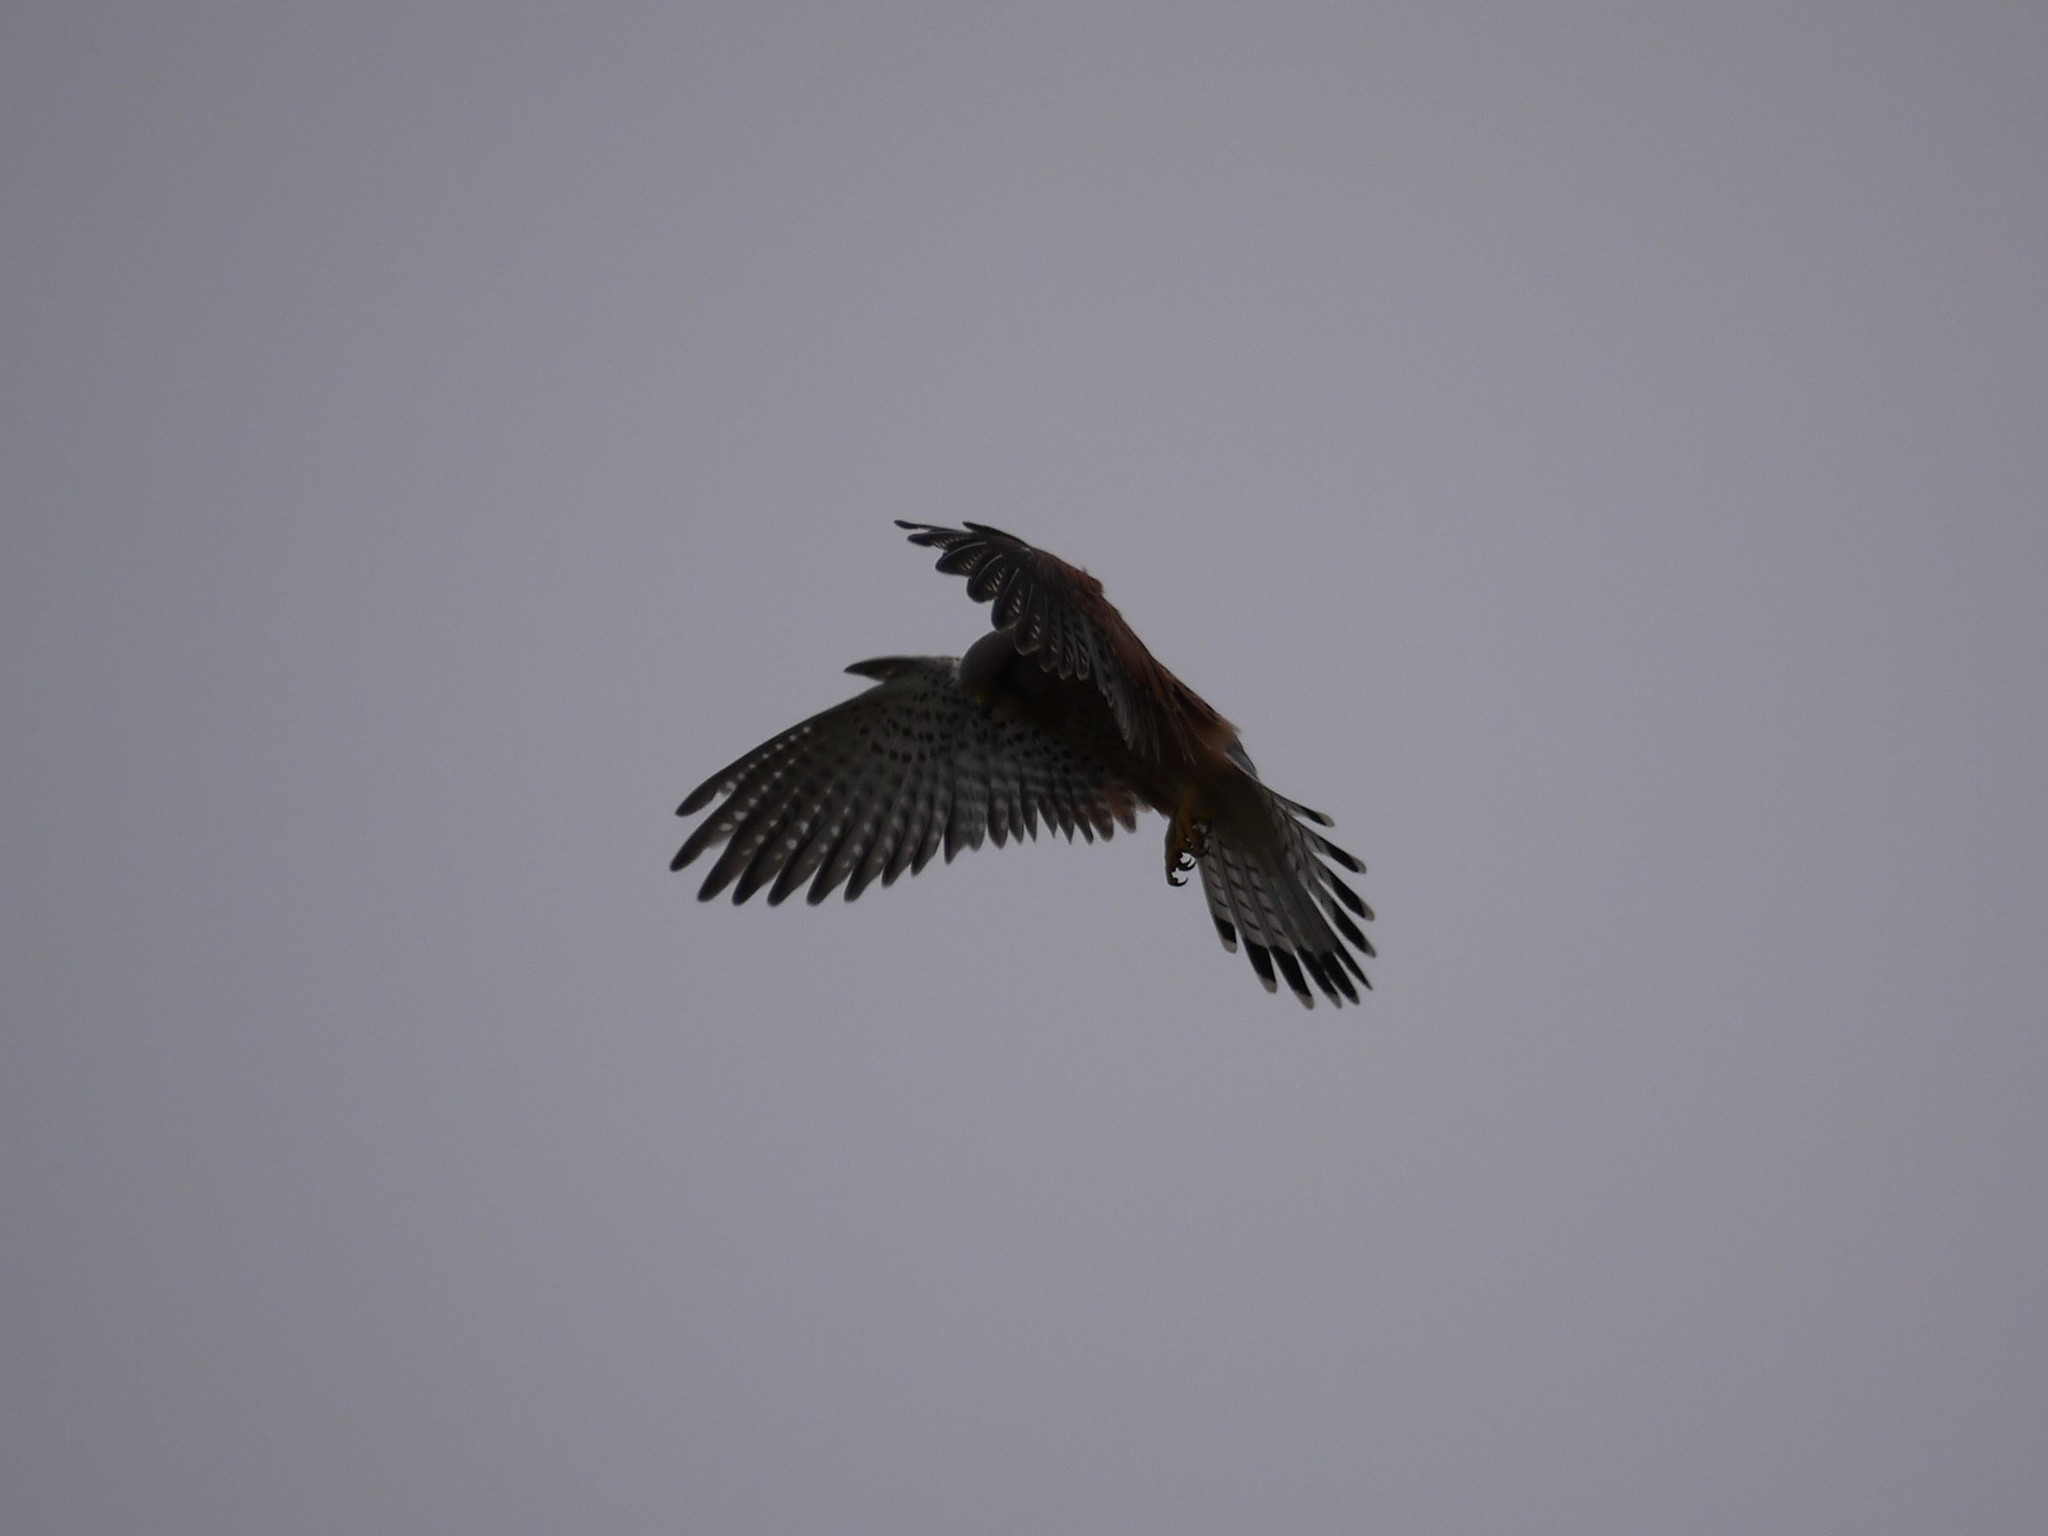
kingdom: Animalia
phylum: Chordata
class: Aves
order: Falconiformes
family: Falconidae
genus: Falco
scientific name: Falco tinnunculus
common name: Common kestrel
